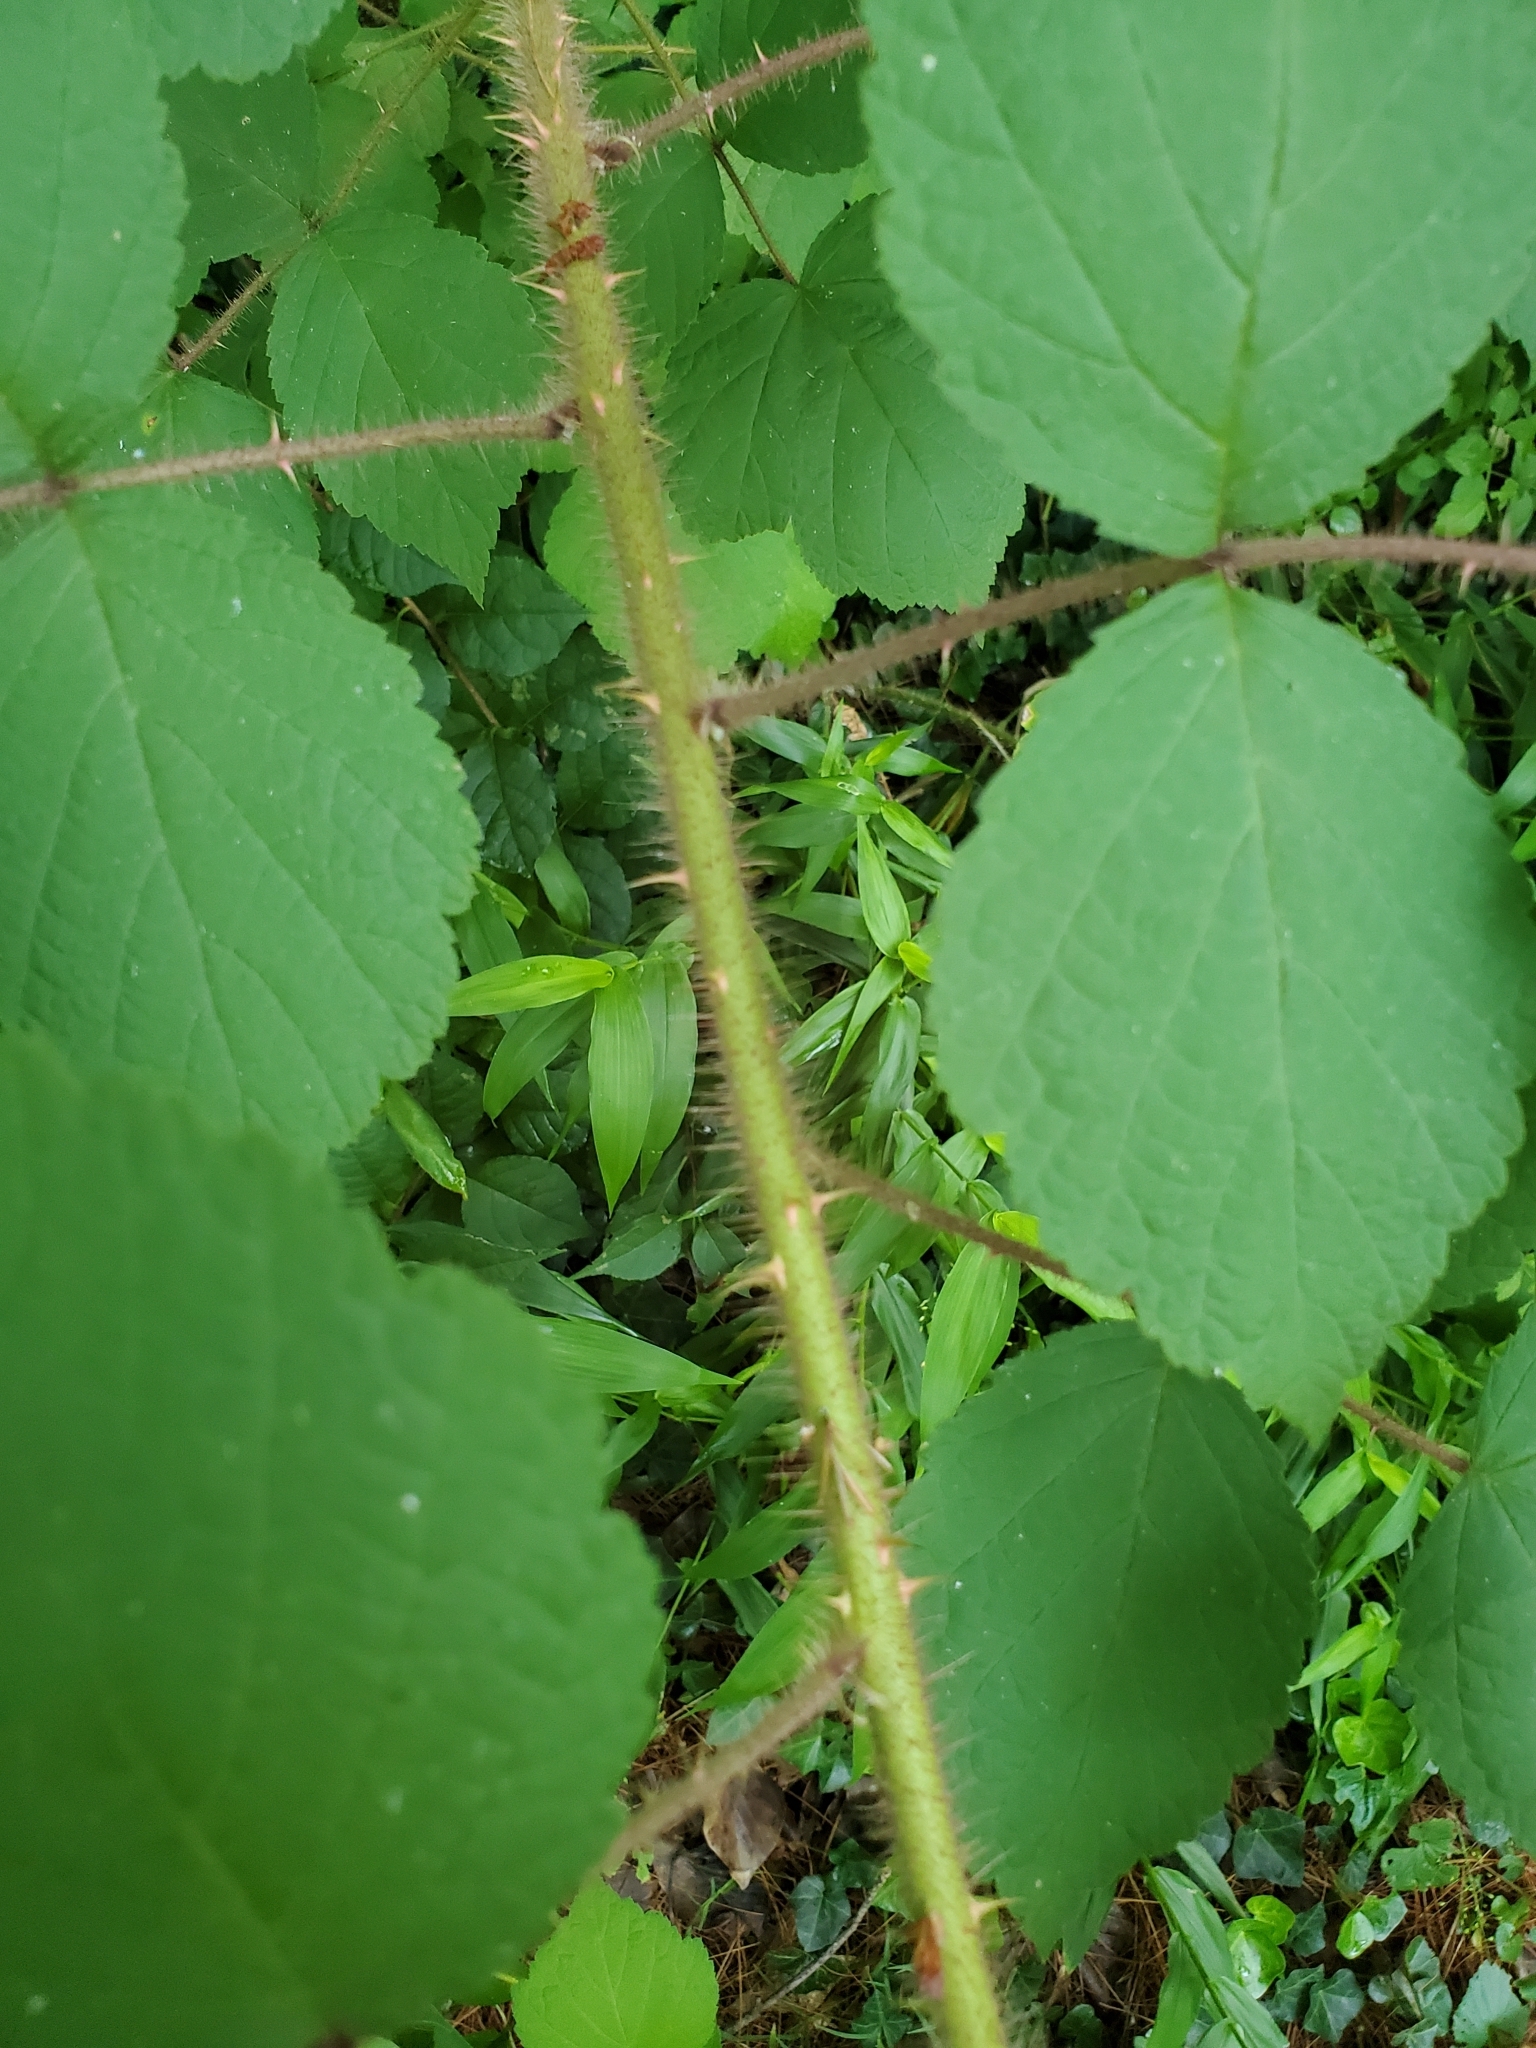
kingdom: Plantae
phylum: Tracheophyta
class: Magnoliopsida
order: Rosales
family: Rosaceae
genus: Rubus
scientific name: Rubus phoenicolasius
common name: Japanese wineberry
